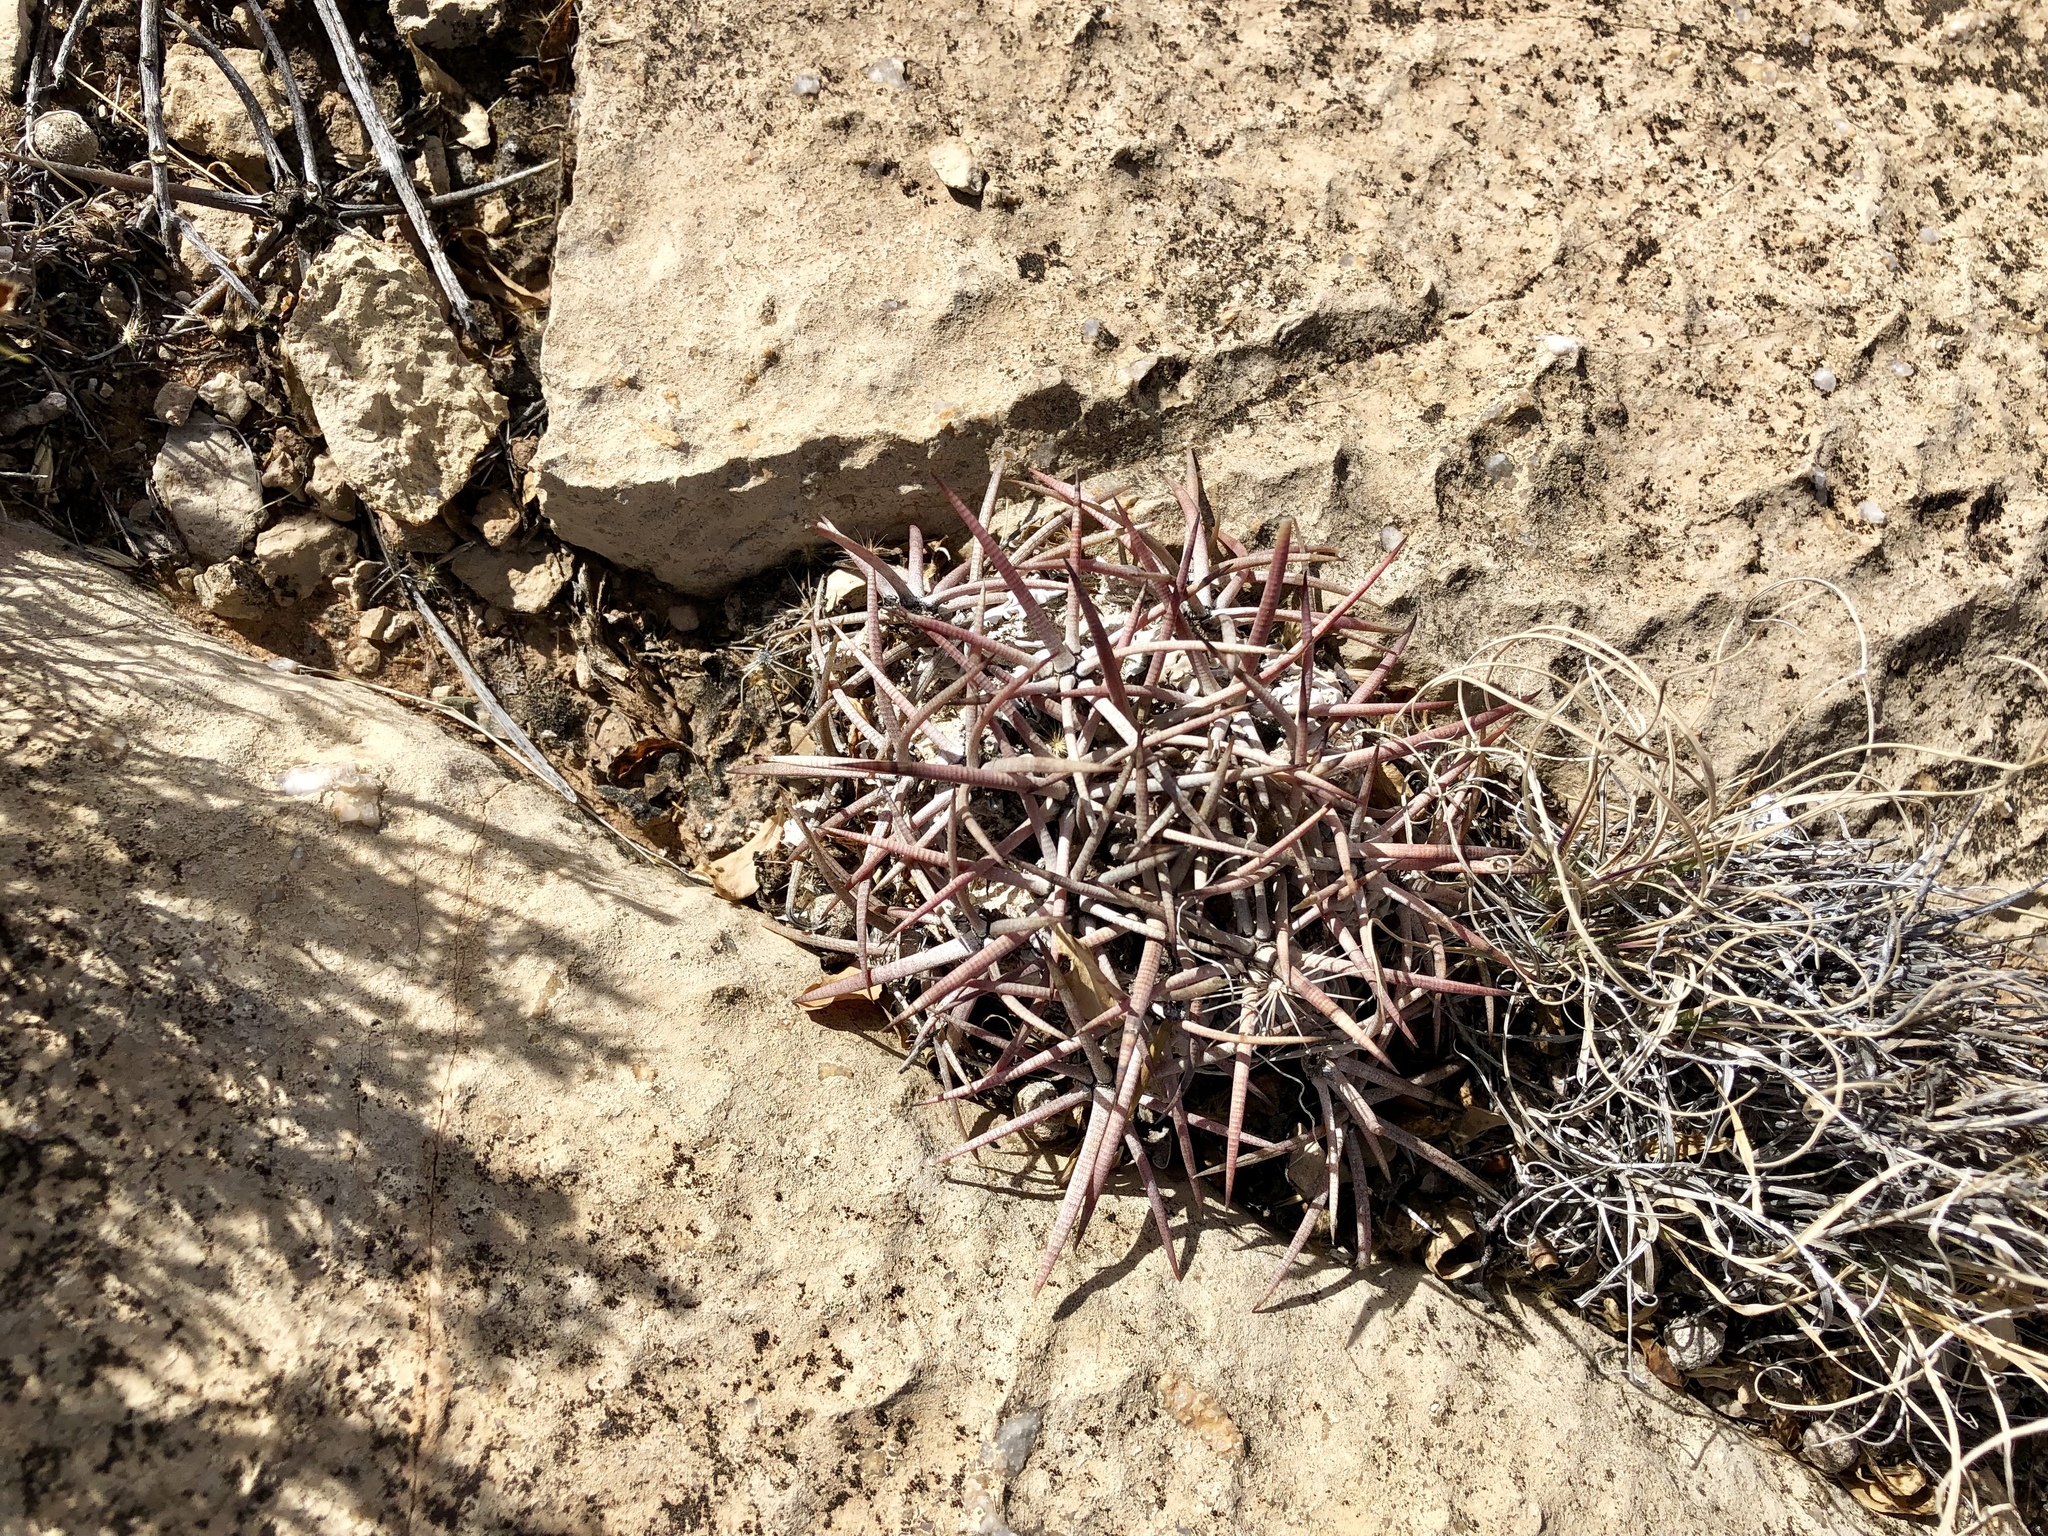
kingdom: Plantae
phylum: Tracheophyta
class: Magnoliopsida
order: Caryophyllales
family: Cactaceae
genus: Echinocactus
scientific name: Echinocactus horizonthalonius
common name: Devilshead
